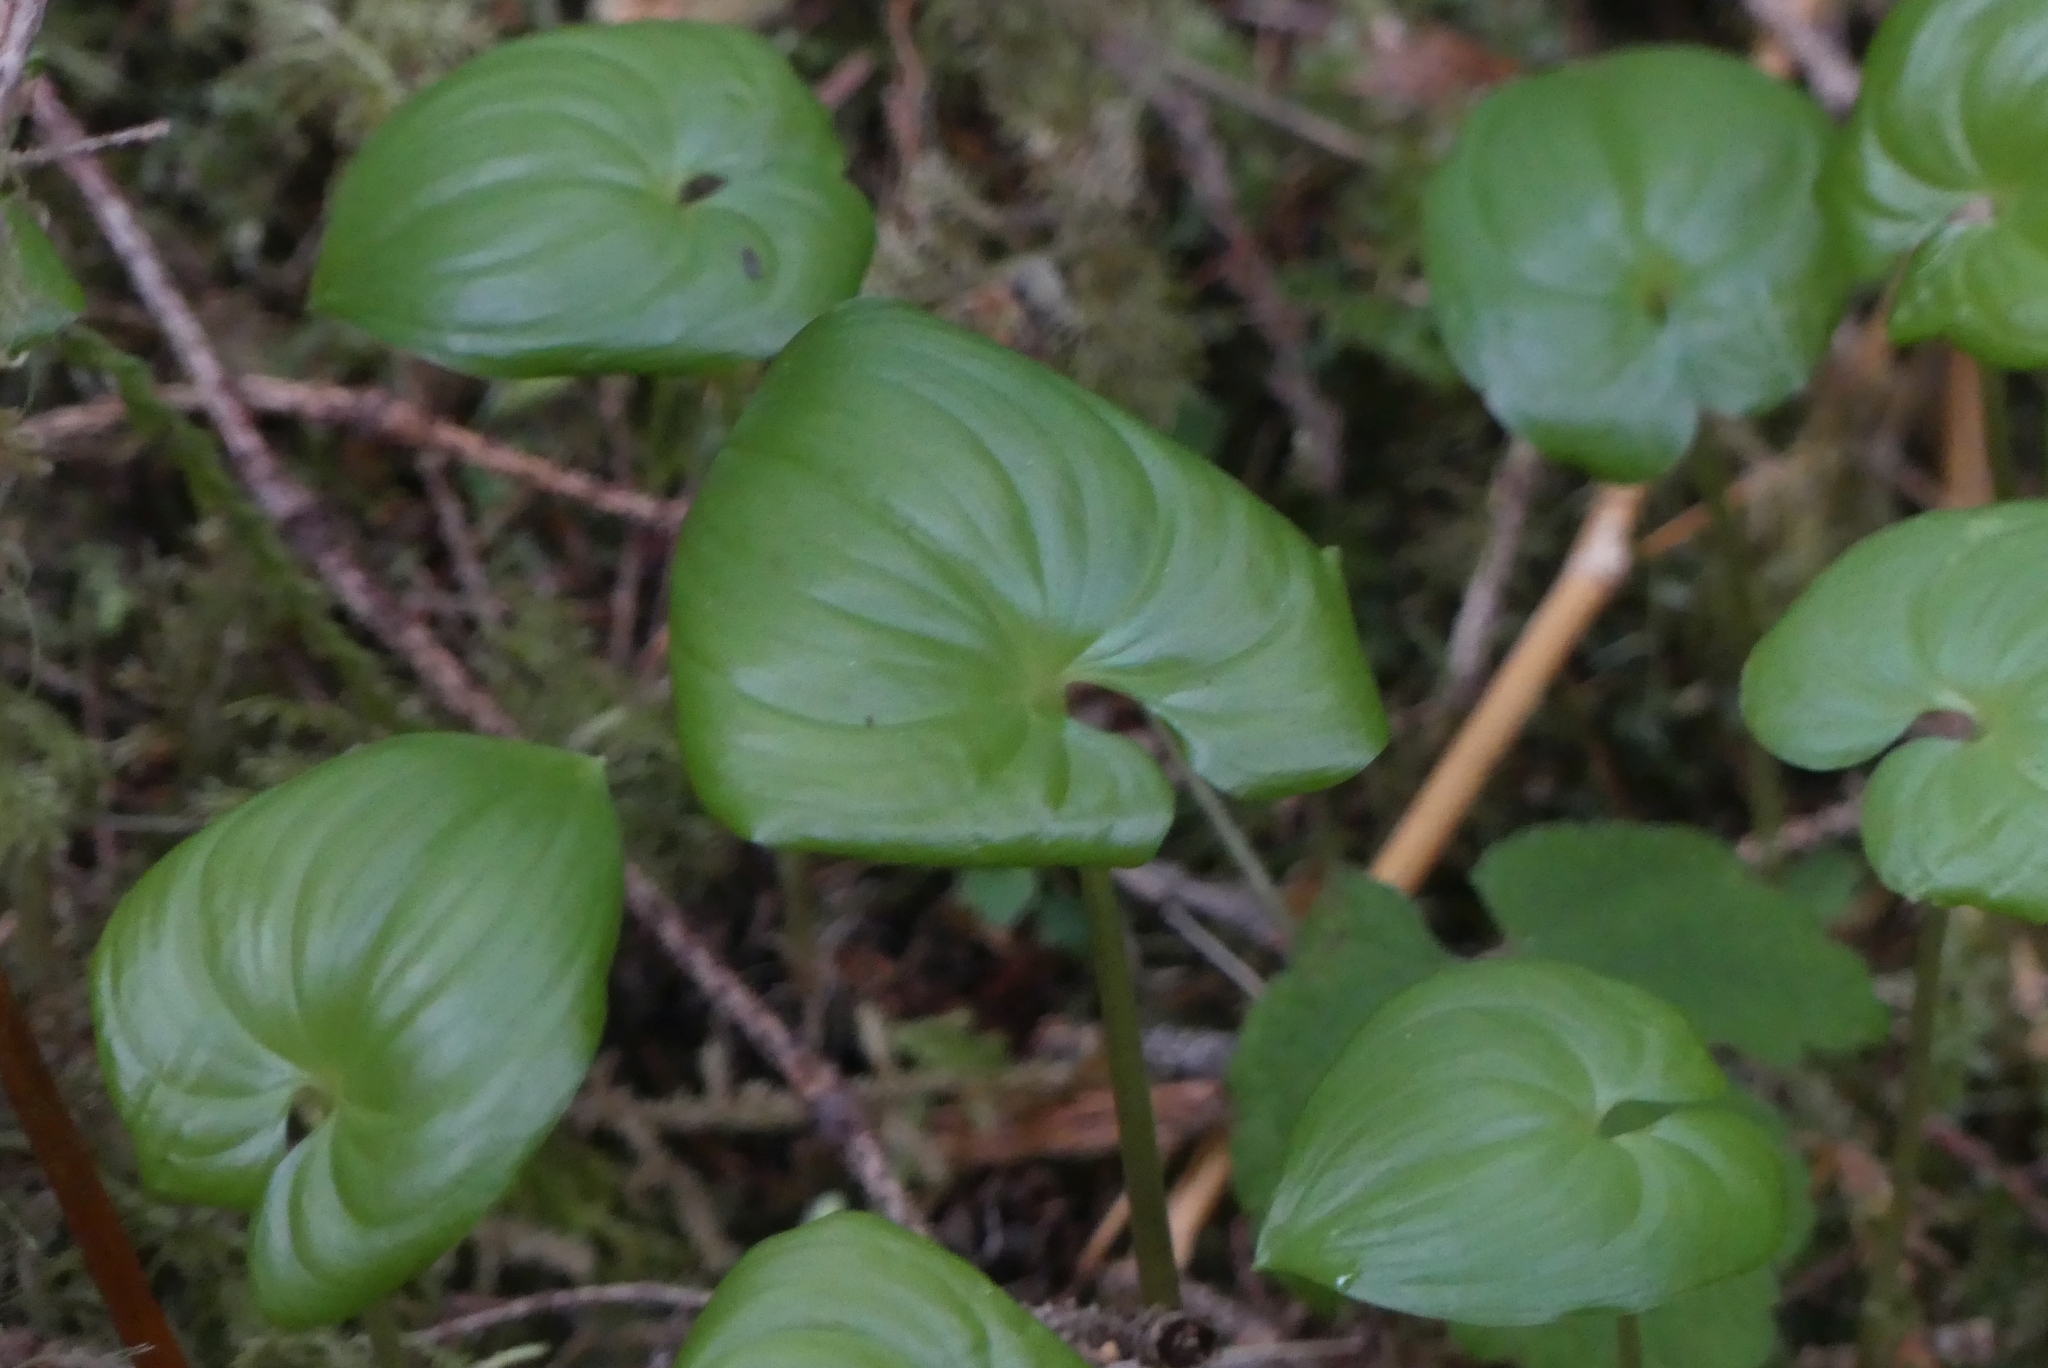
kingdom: Plantae
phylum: Tracheophyta
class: Liliopsida
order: Asparagales
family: Asparagaceae
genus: Maianthemum
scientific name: Maianthemum dilatatum
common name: False lily-of-the-valley
